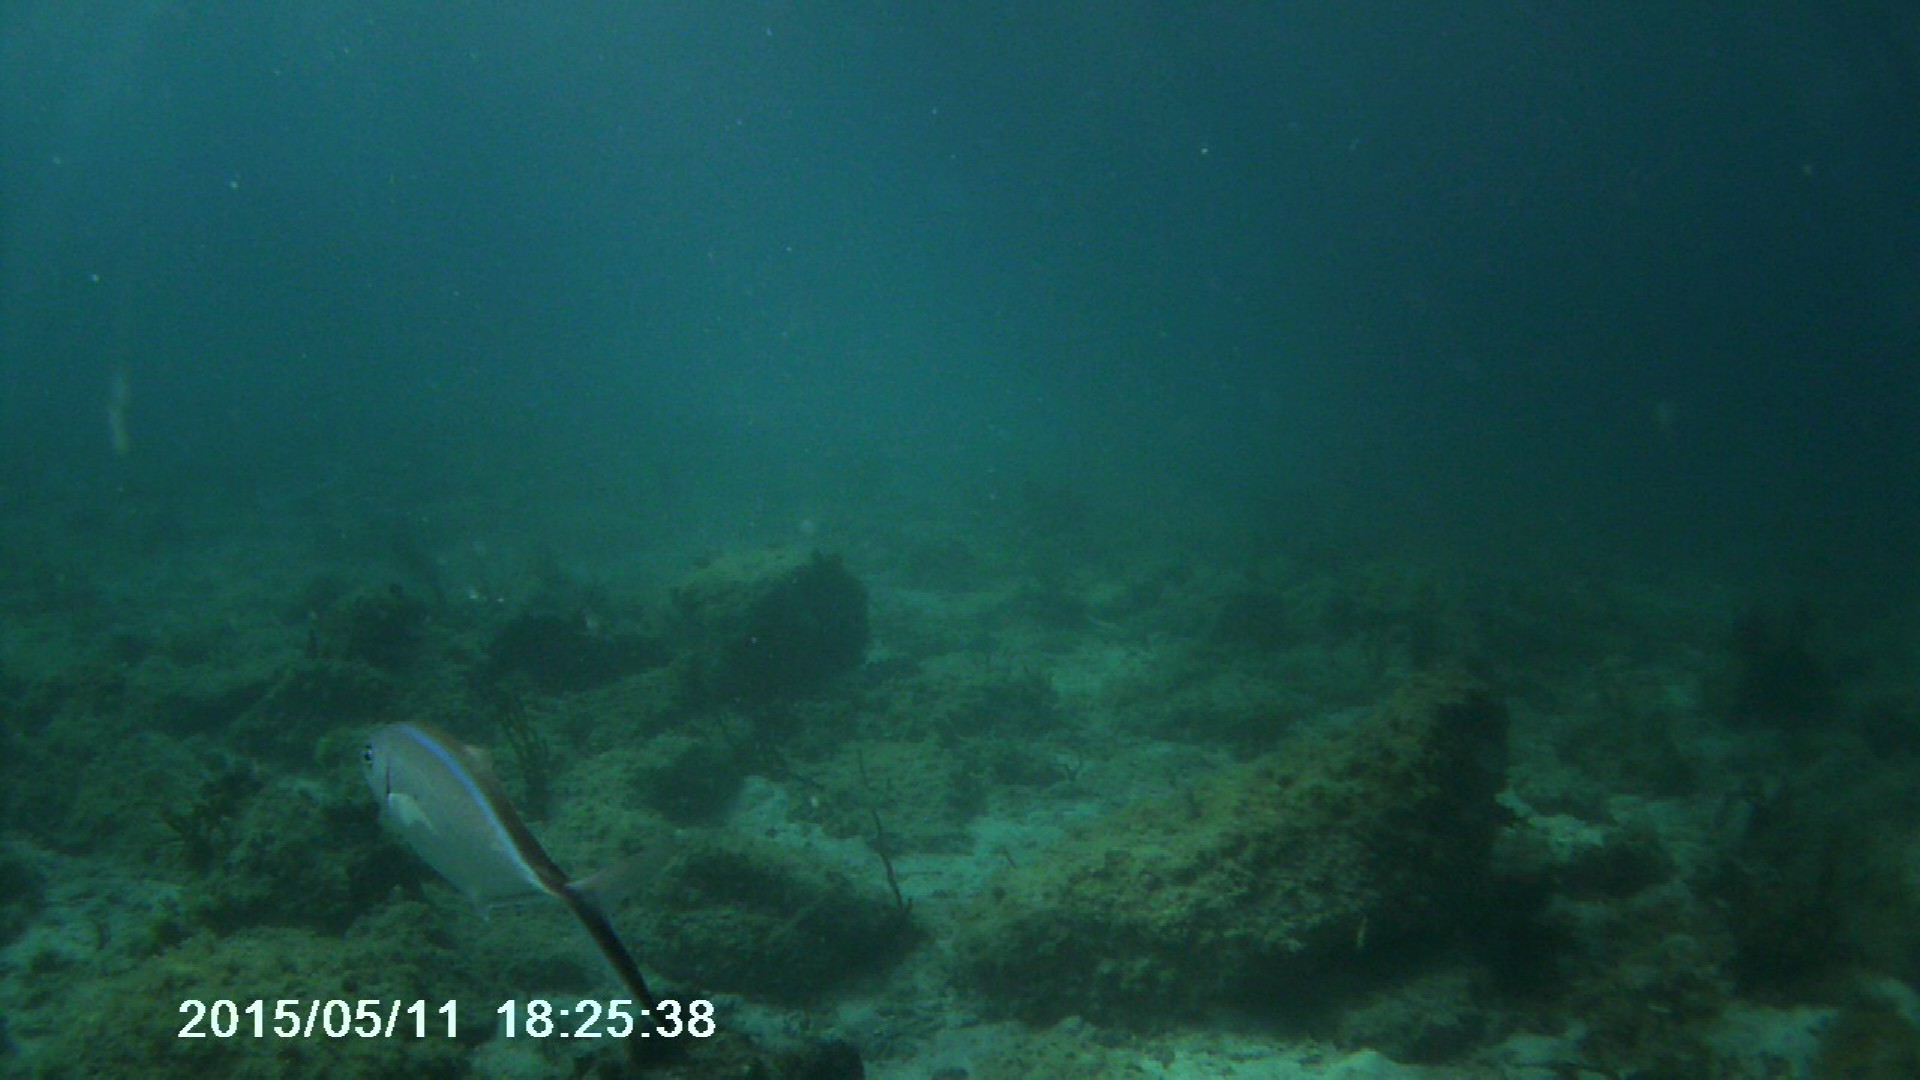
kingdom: Animalia
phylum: Chordata
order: Perciformes
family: Carangidae
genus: Caranx
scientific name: Caranx ruber
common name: Bar jack
